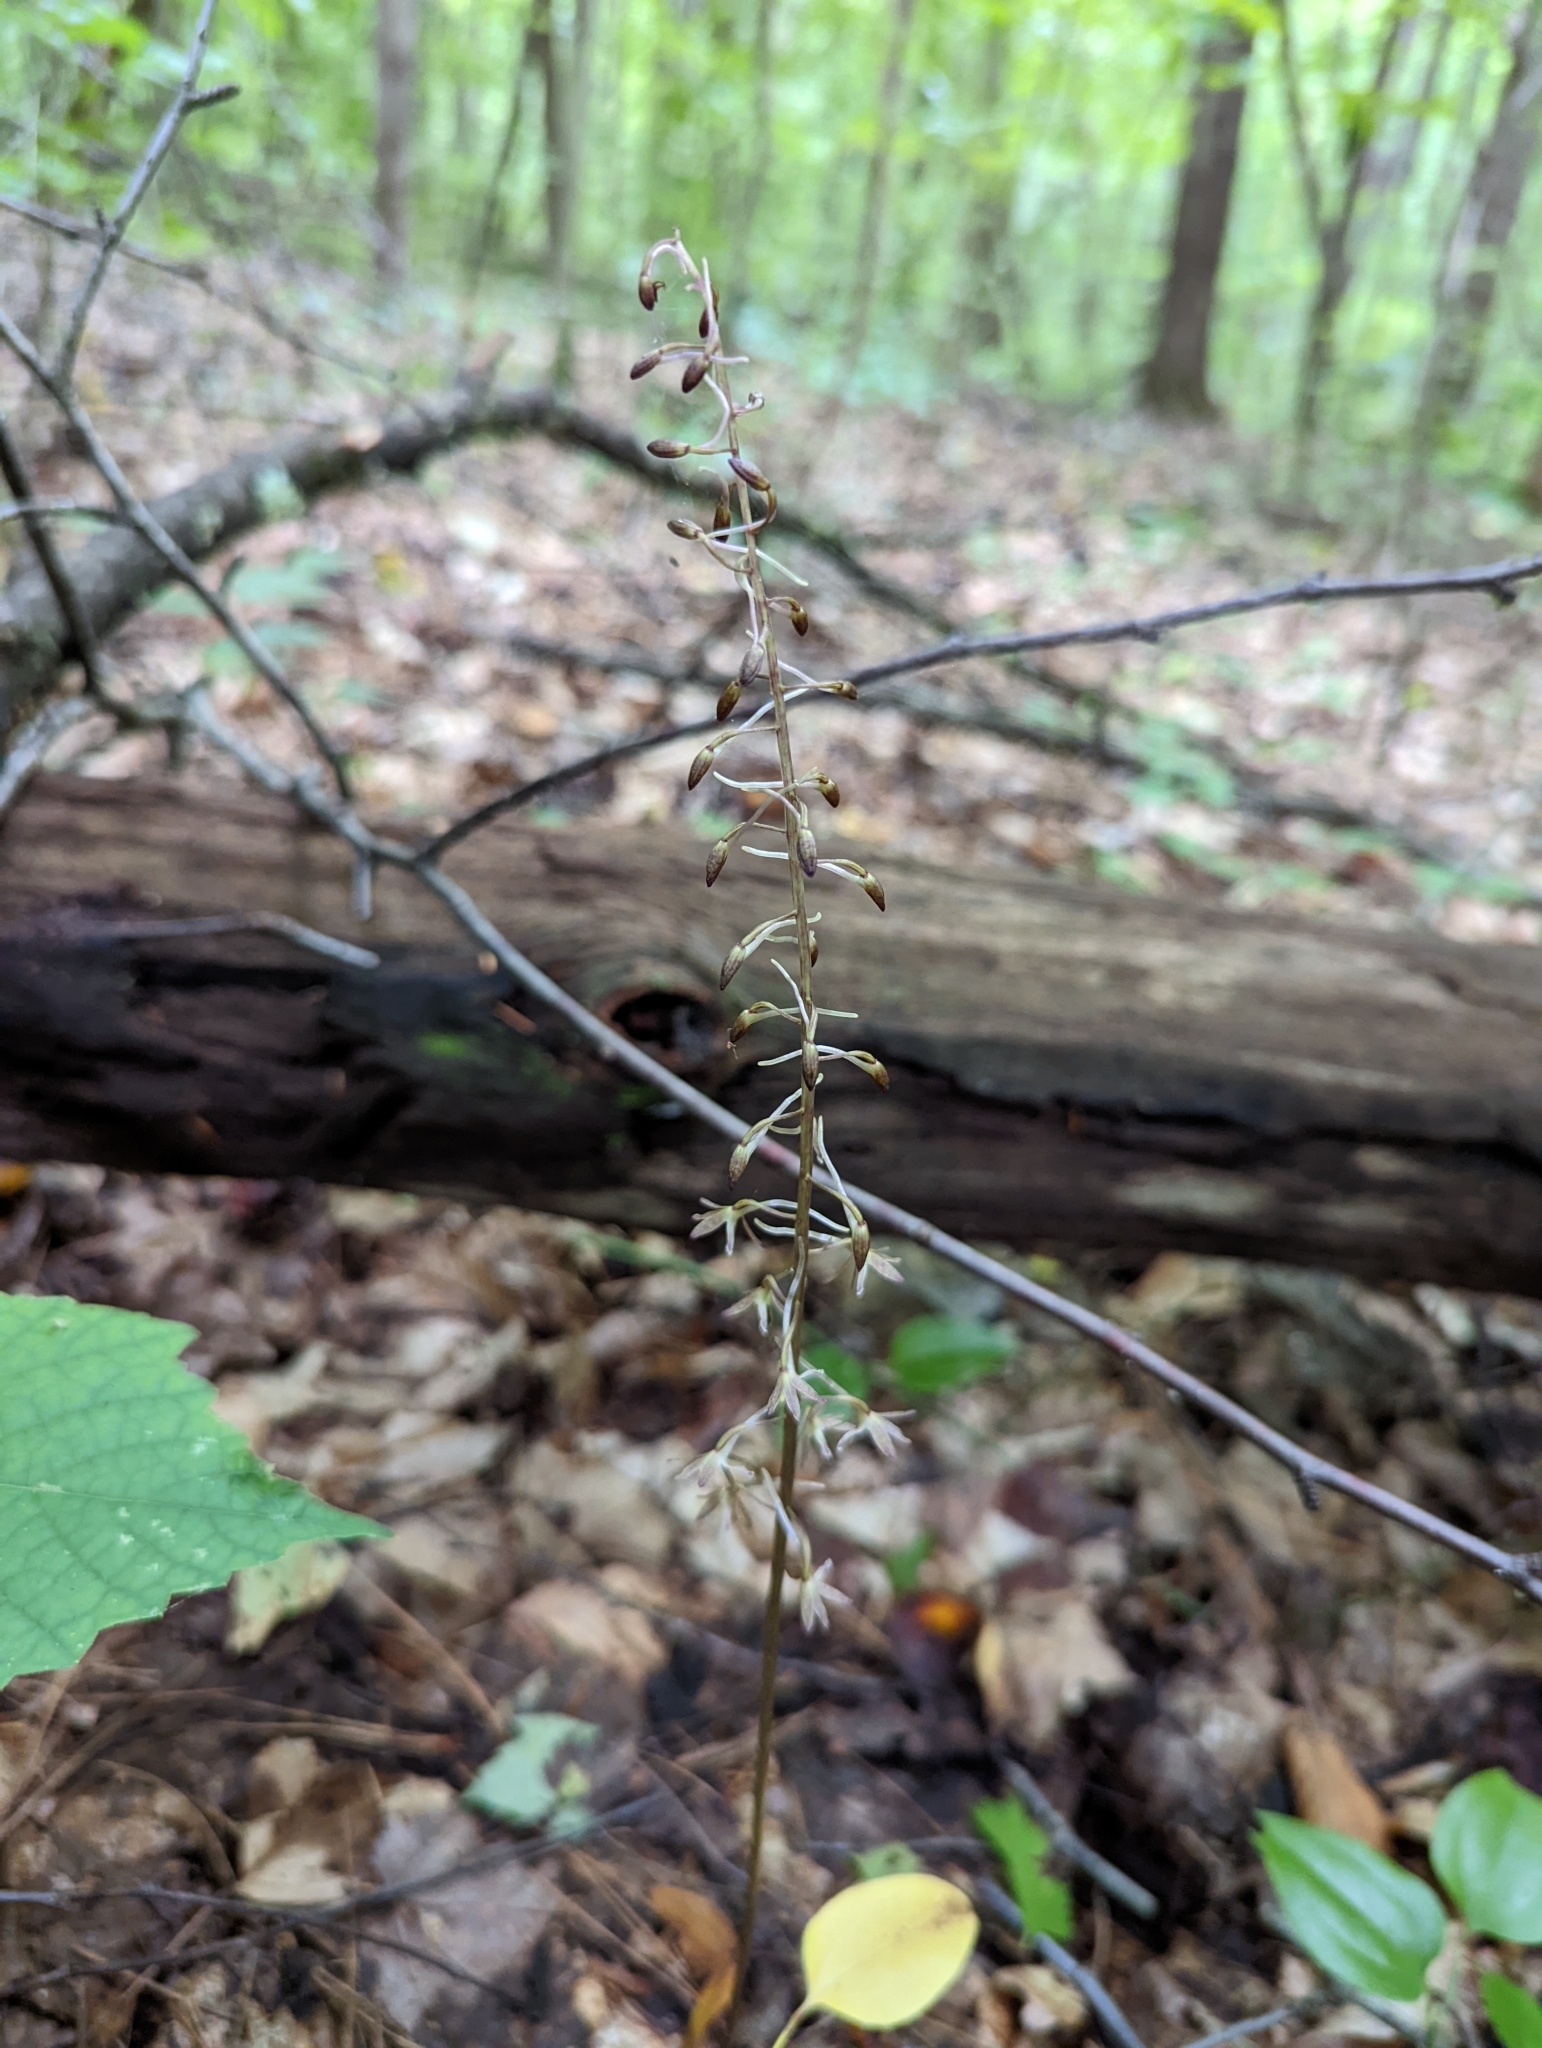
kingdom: Plantae
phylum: Tracheophyta
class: Liliopsida
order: Asparagales
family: Orchidaceae
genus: Tipularia
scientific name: Tipularia discolor
